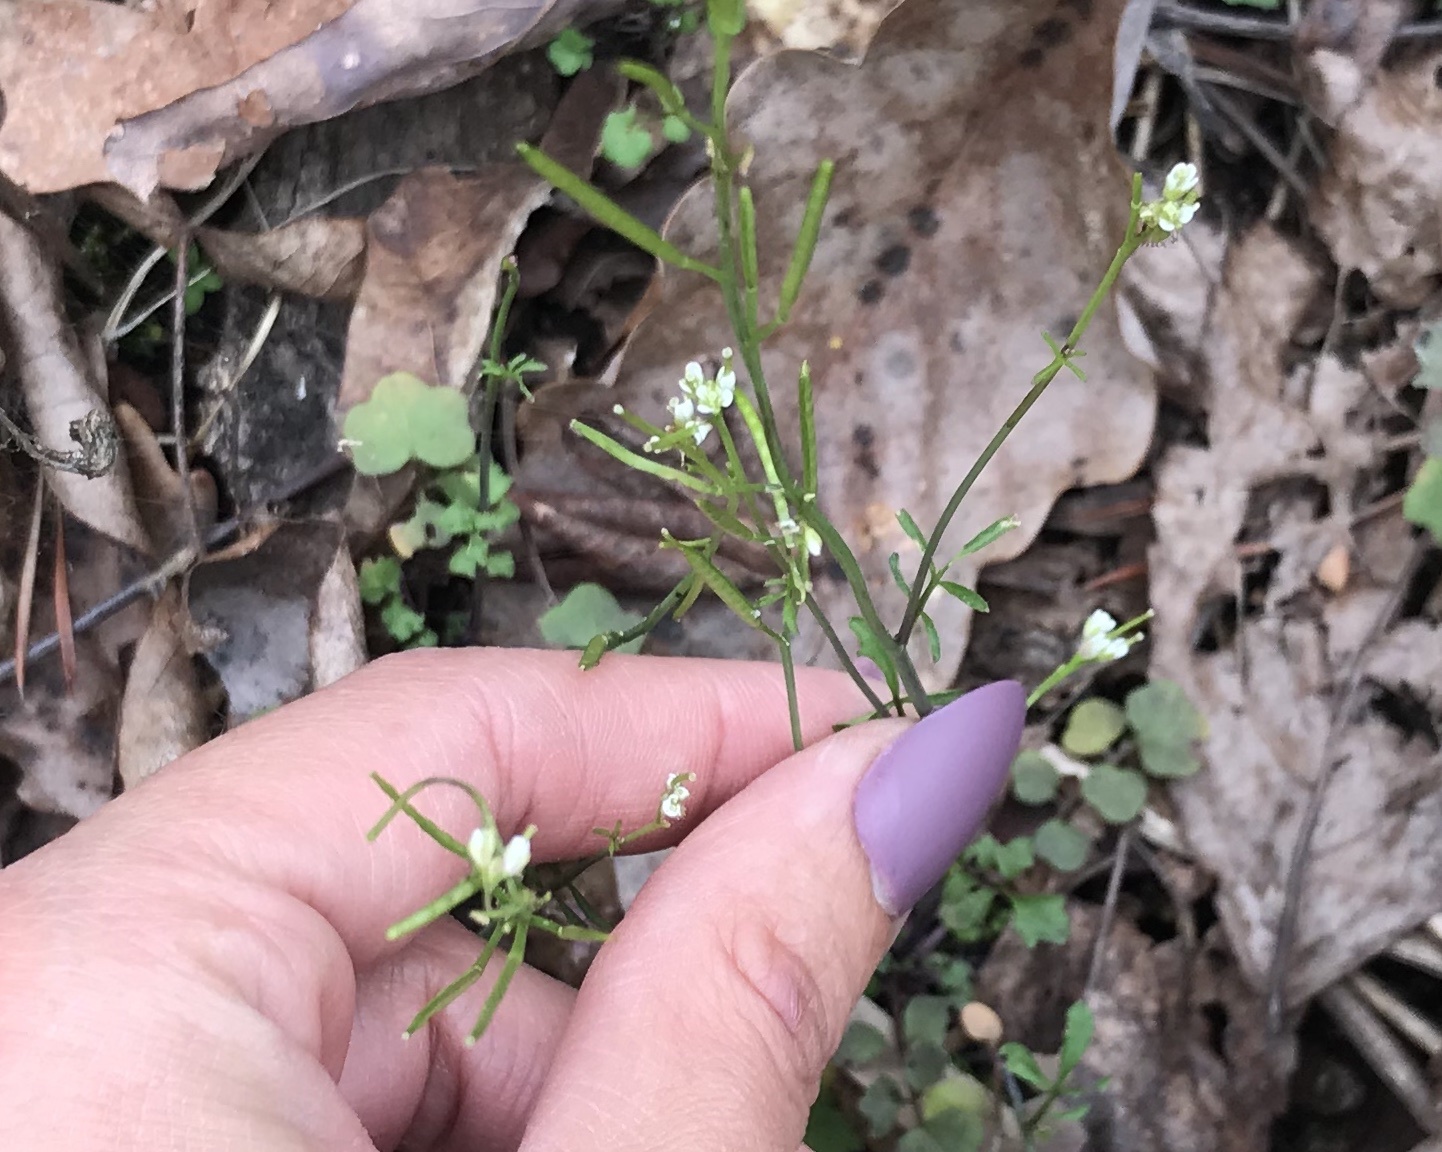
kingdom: Plantae
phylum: Tracheophyta
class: Magnoliopsida
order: Brassicales
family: Brassicaceae
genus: Cardamine
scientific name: Cardamine hirsuta
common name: Hairy bittercress
